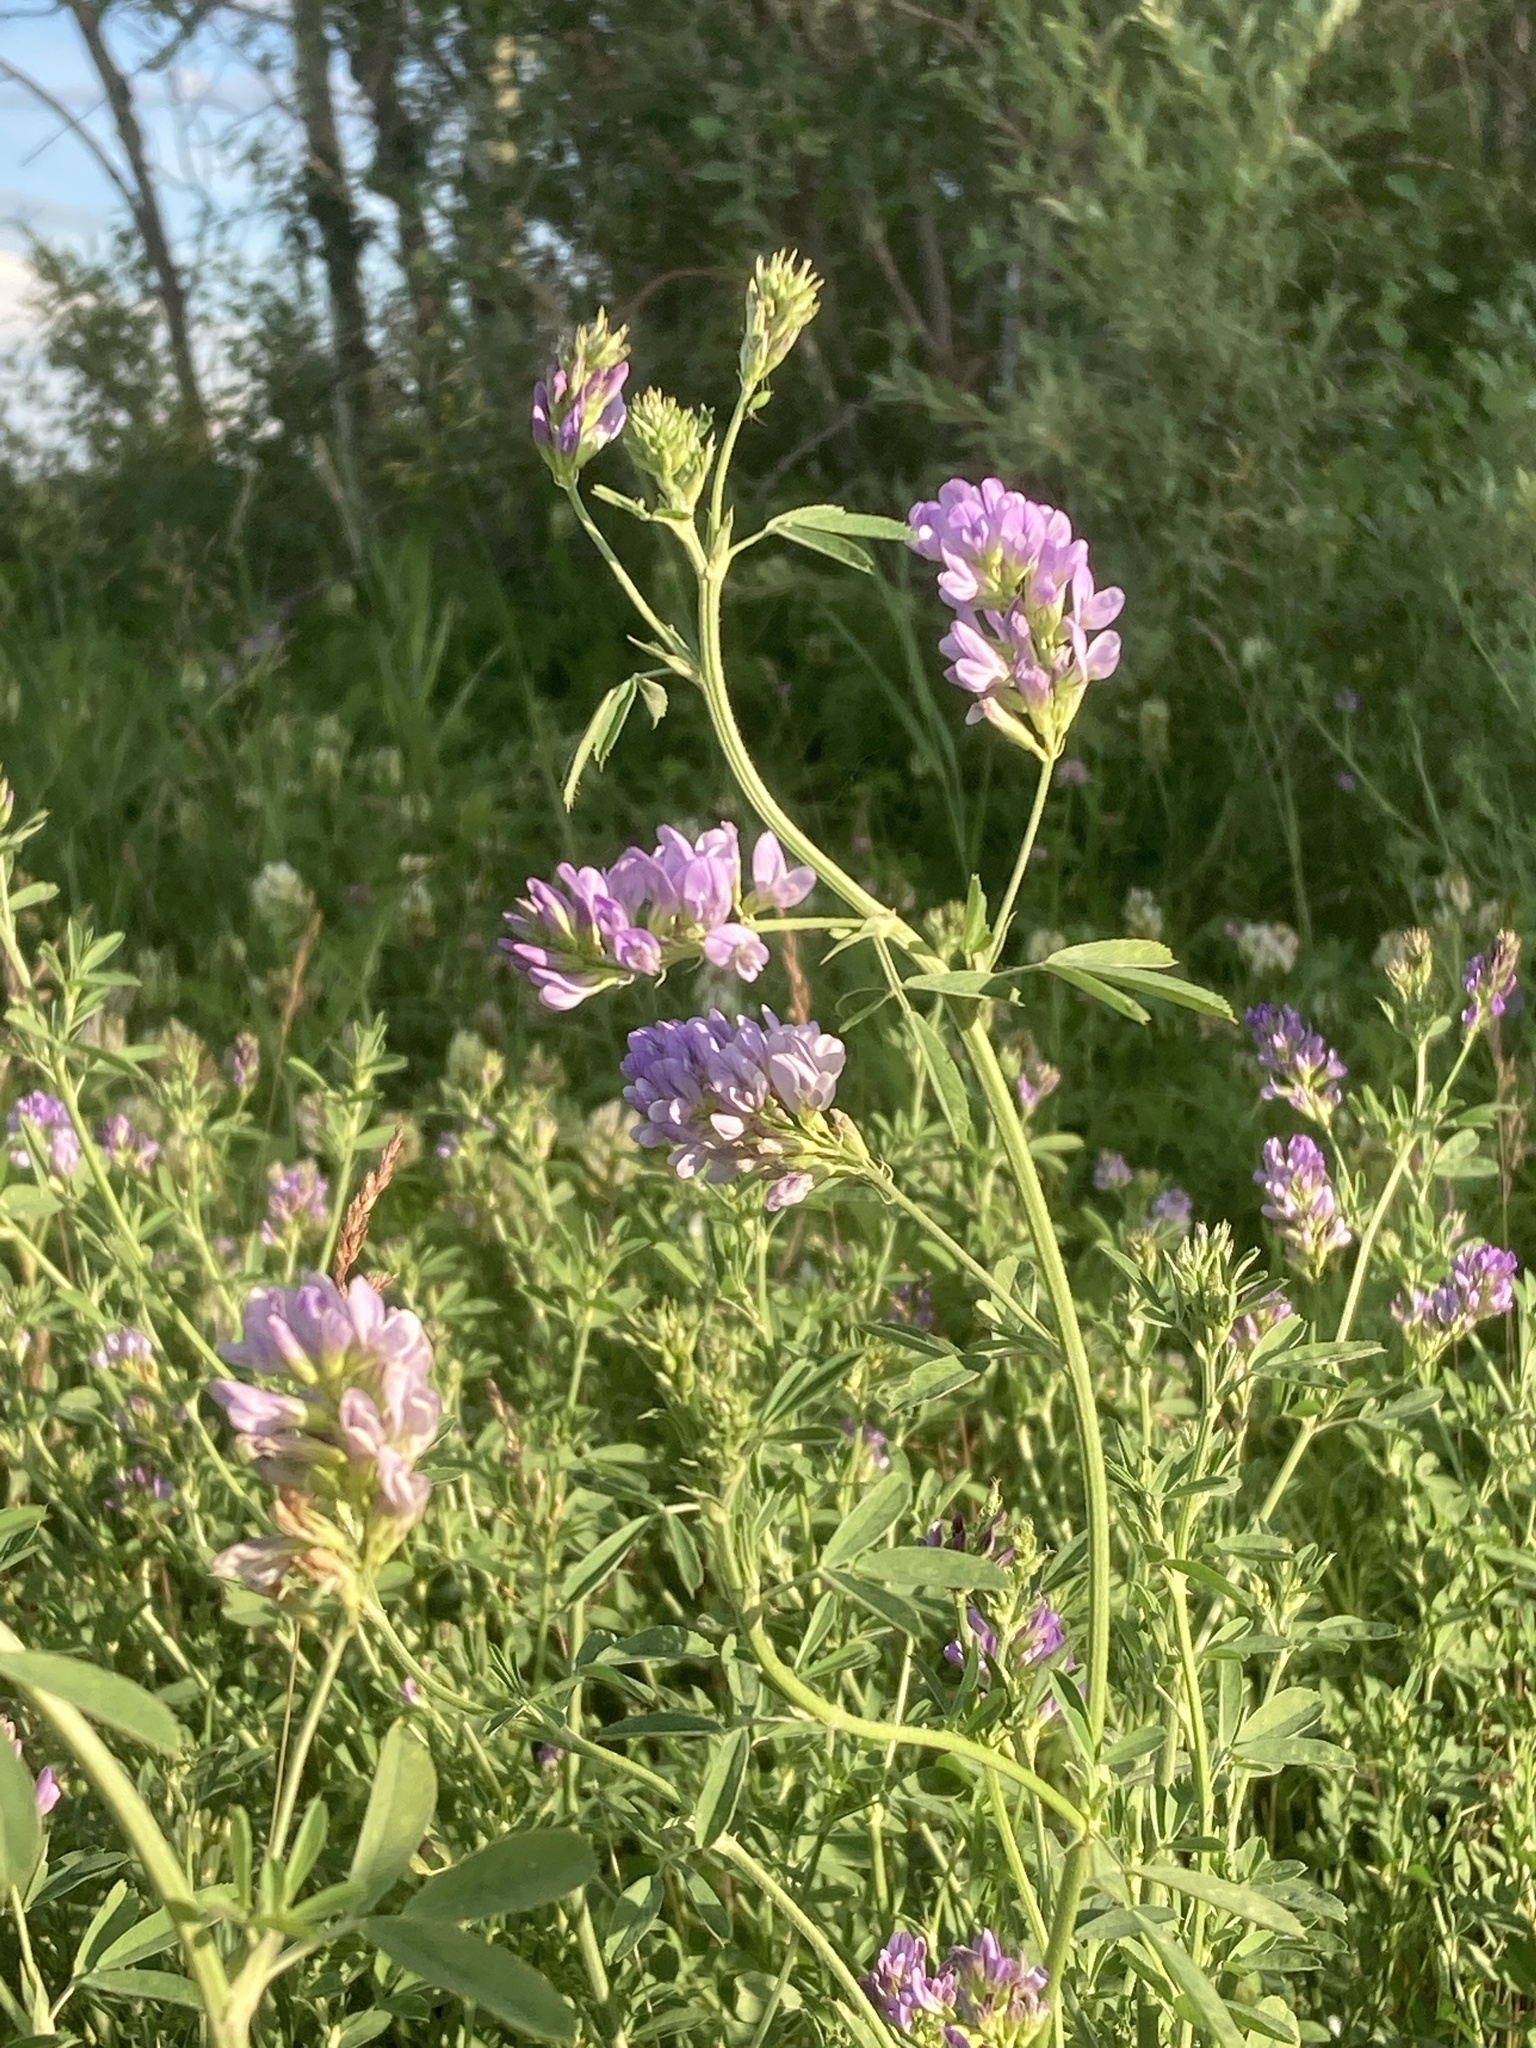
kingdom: Plantae
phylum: Tracheophyta
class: Magnoliopsida
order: Fabales
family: Fabaceae
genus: Medicago
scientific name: Medicago sativa
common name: Alfalfa
